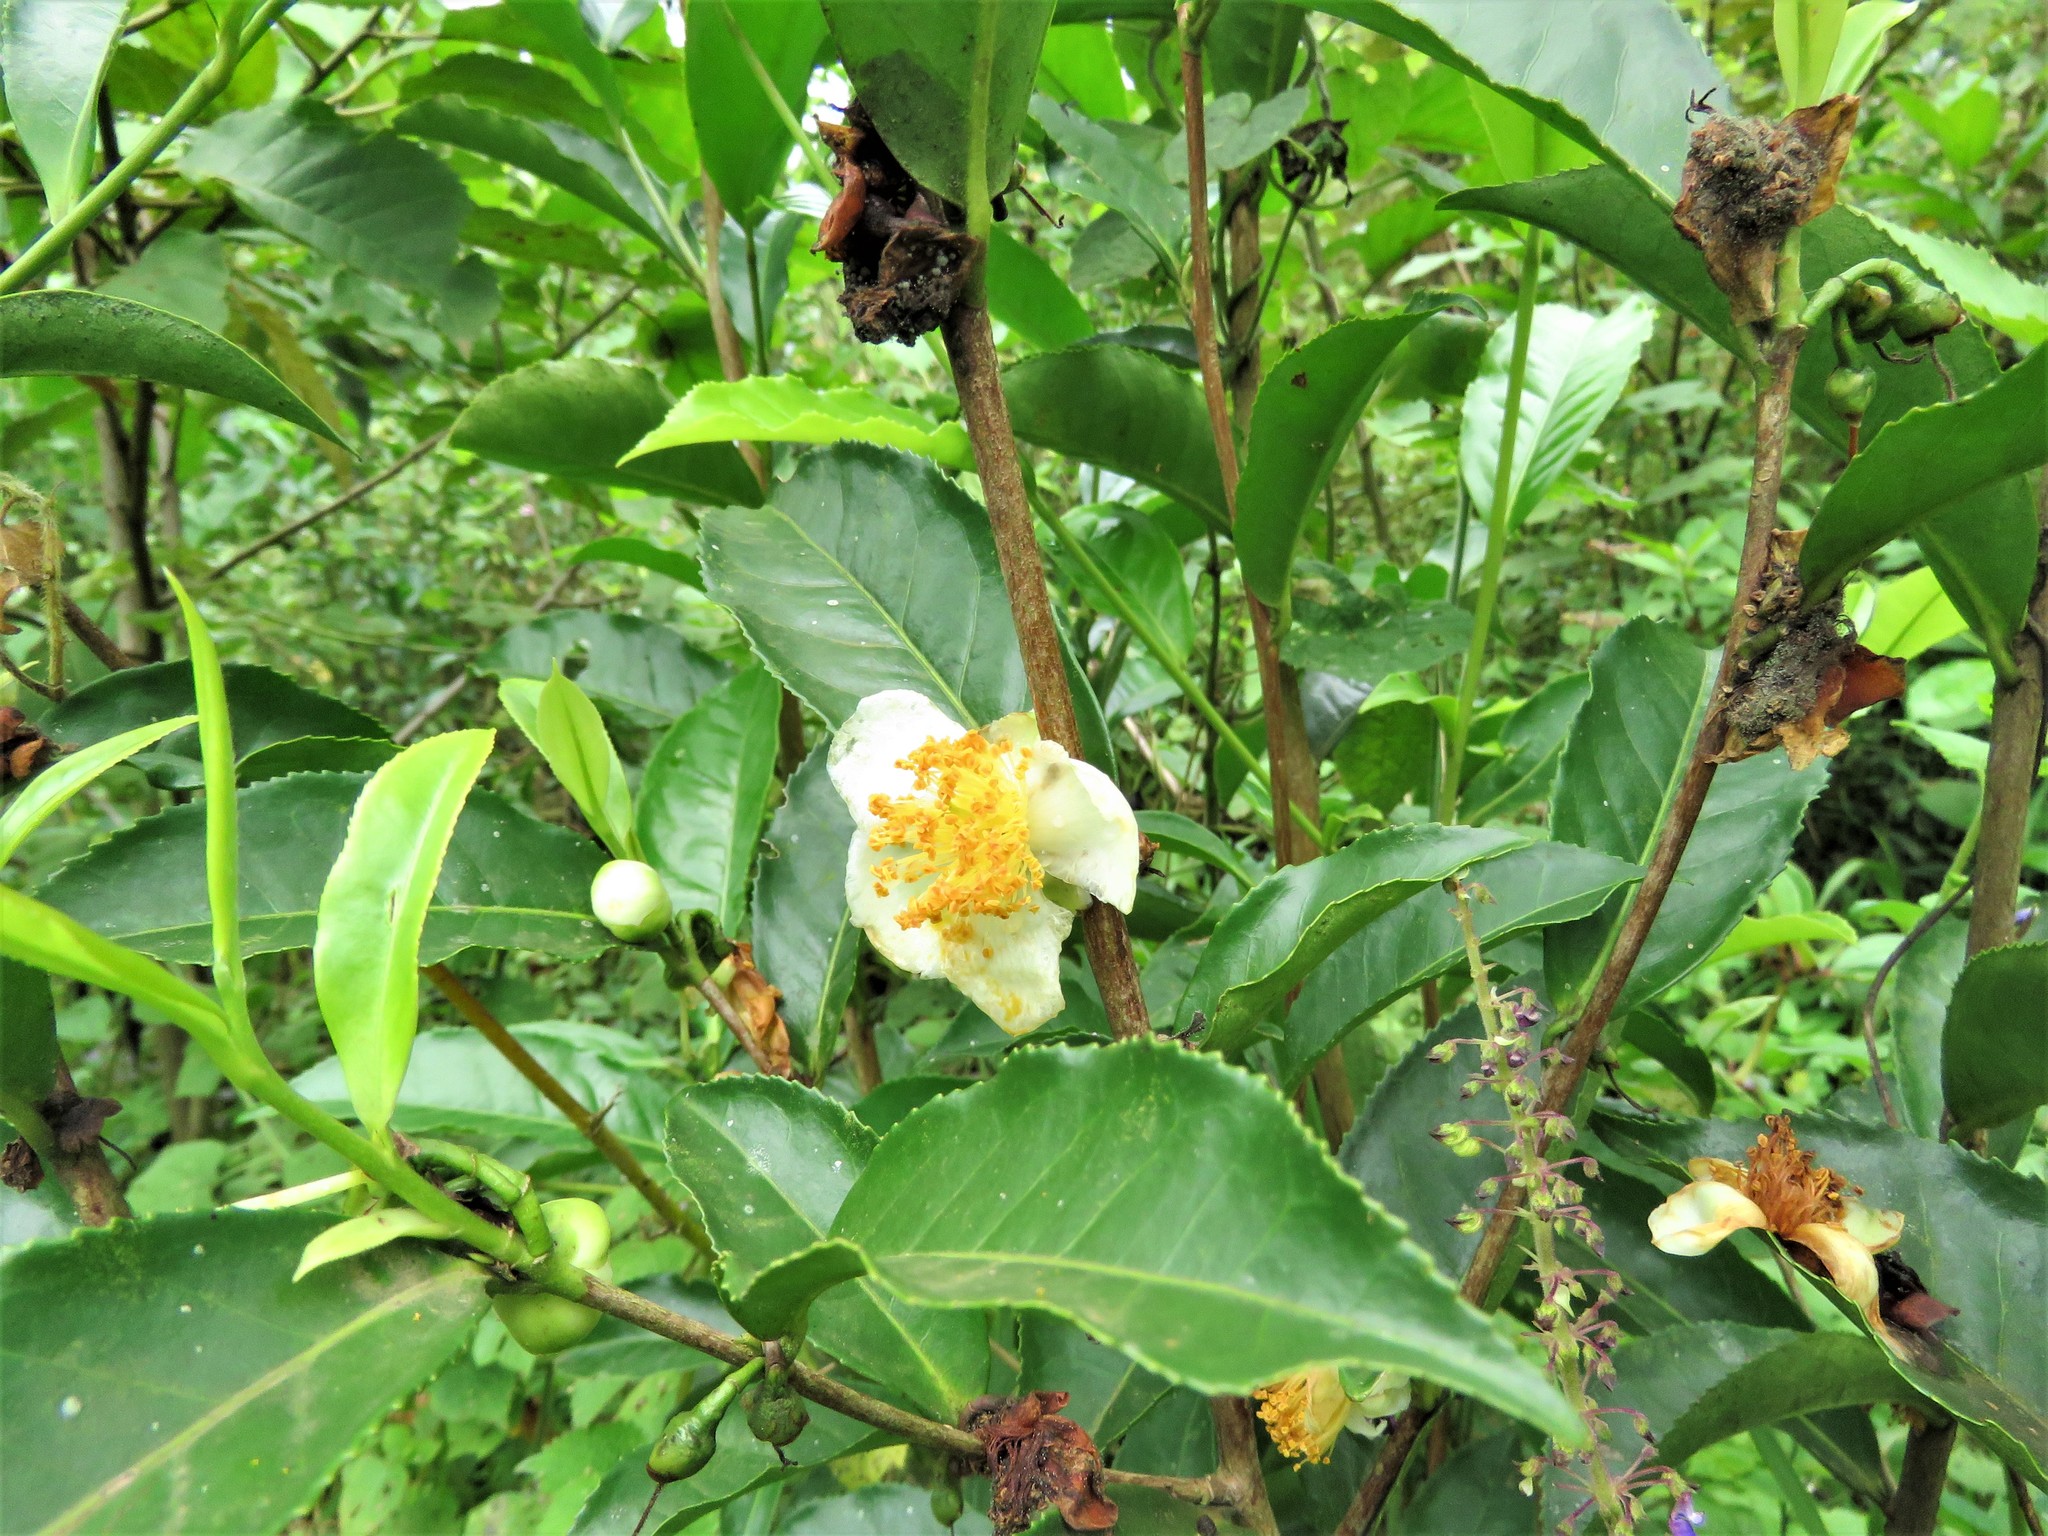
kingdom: Plantae
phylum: Tracheophyta
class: Magnoliopsida
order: Ericales
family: Theaceae
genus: Camellia
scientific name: Camellia sinensis
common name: Tea
